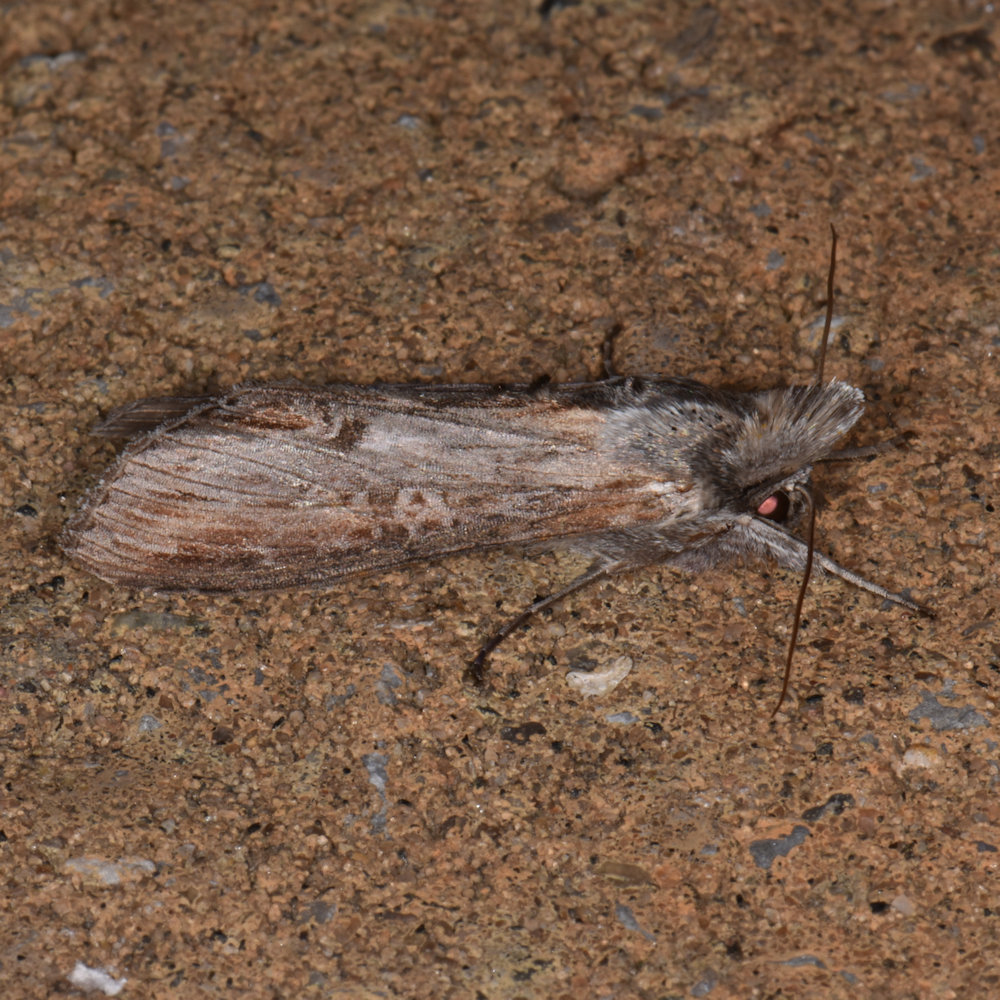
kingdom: Animalia
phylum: Arthropoda
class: Insecta
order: Lepidoptera
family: Noctuidae
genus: Cucullia
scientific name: Cucullia asteroides
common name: Asteroid moth
